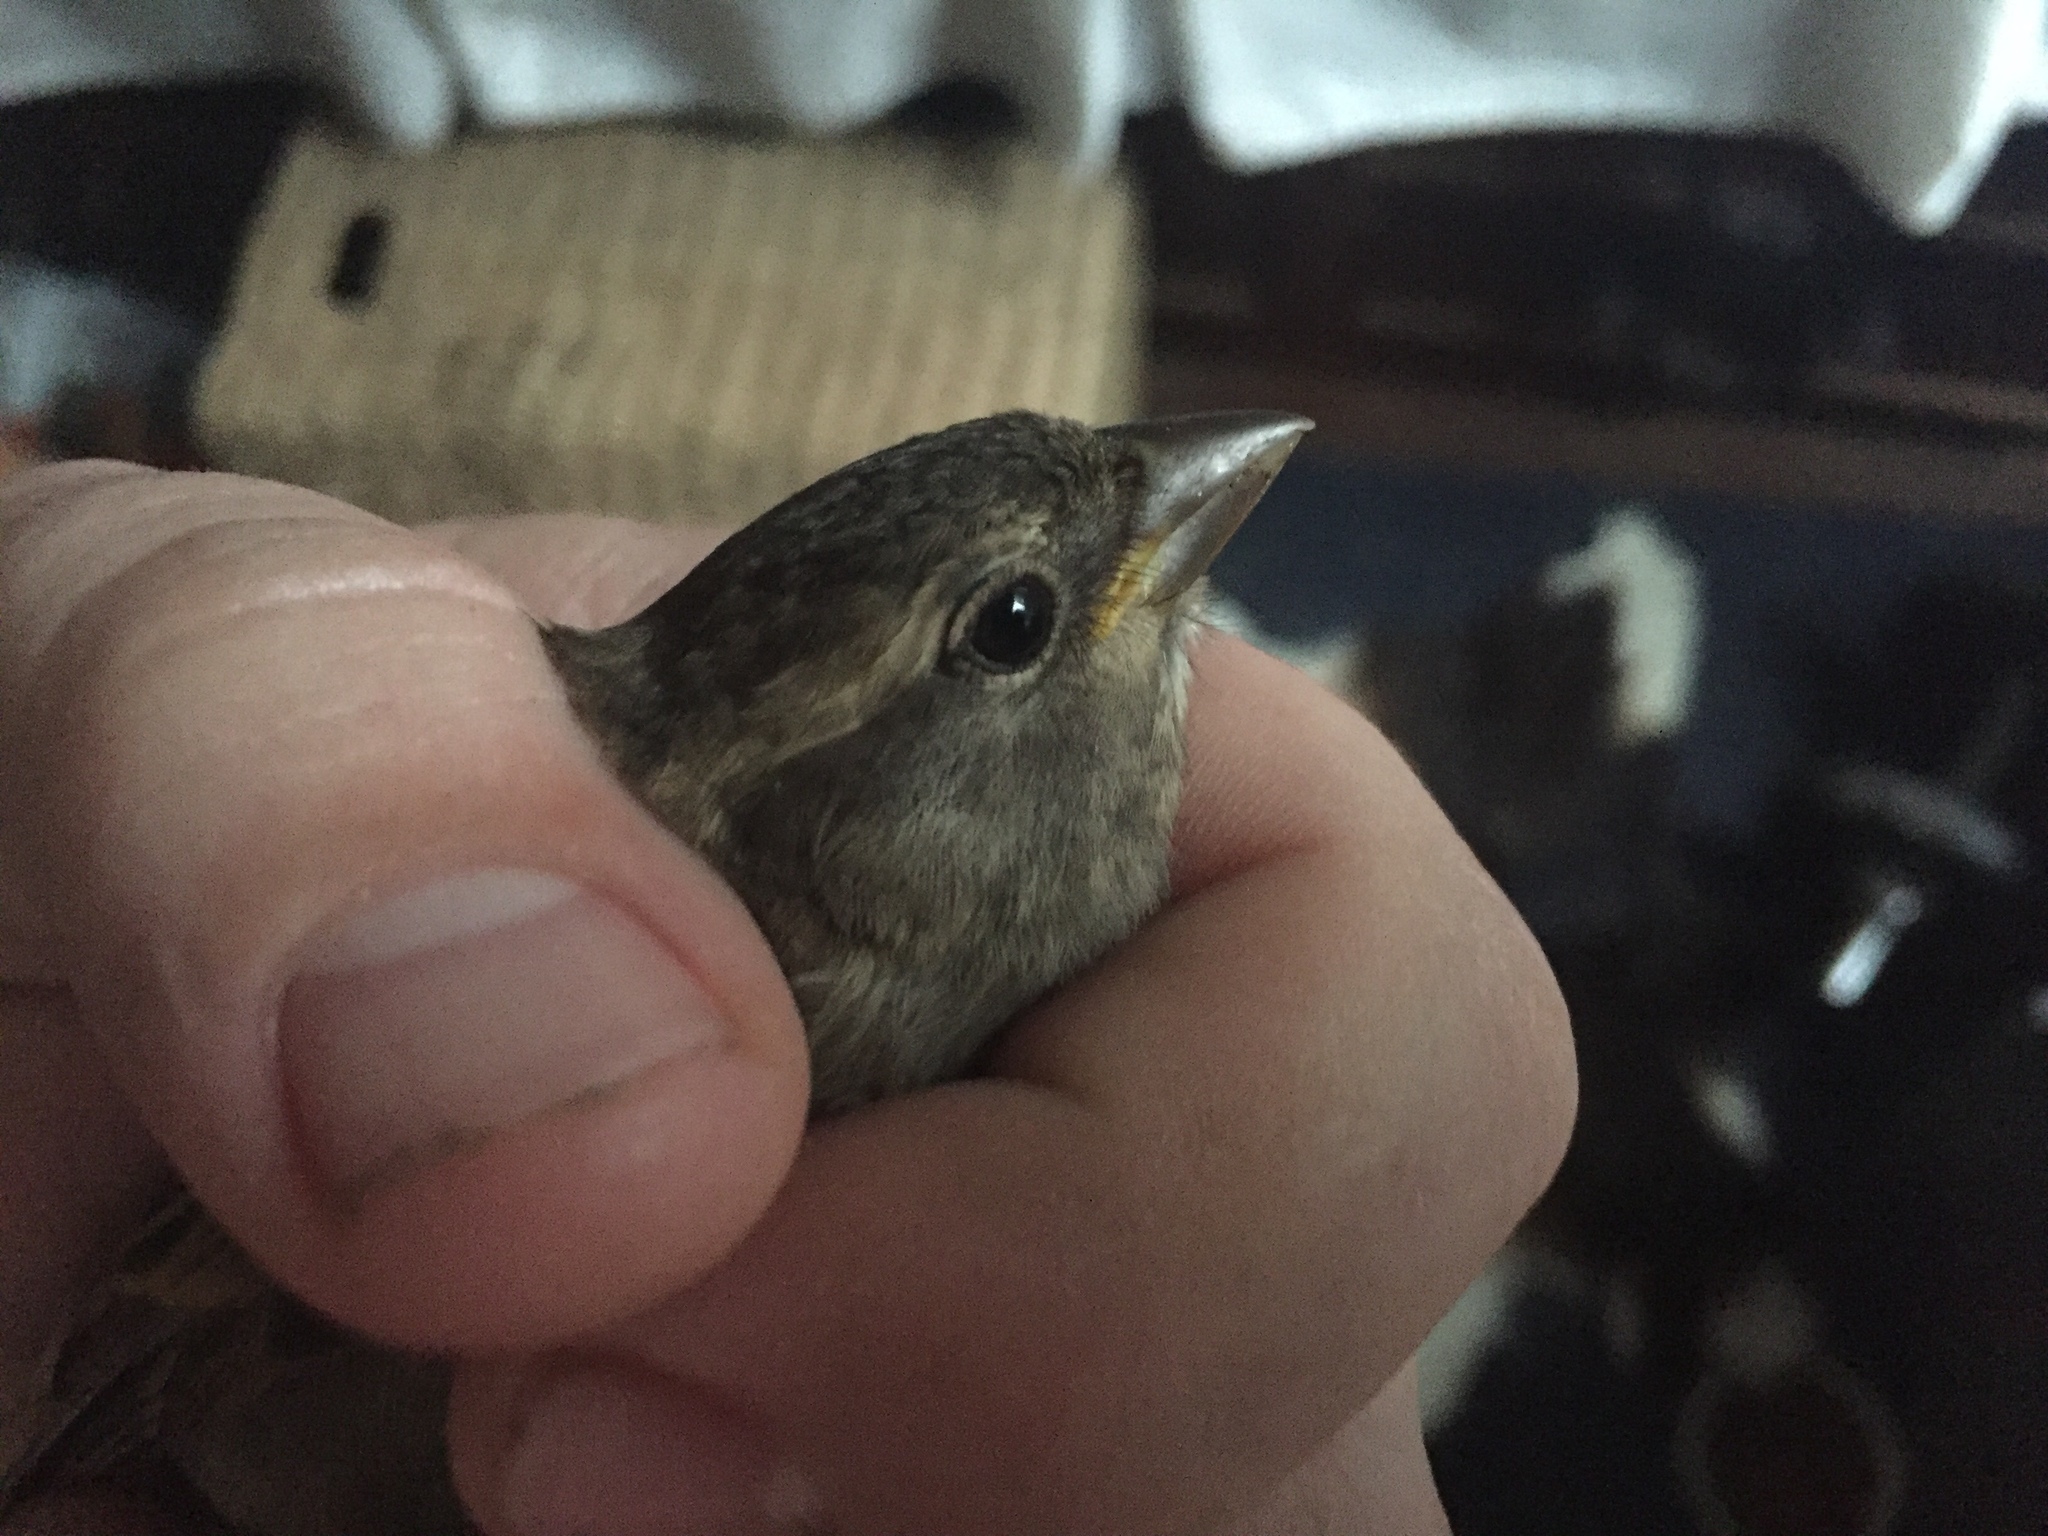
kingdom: Animalia
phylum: Chordata
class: Aves
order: Passeriformes
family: Passeridae
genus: Passer
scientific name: Passer domesticus
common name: House sparrow
